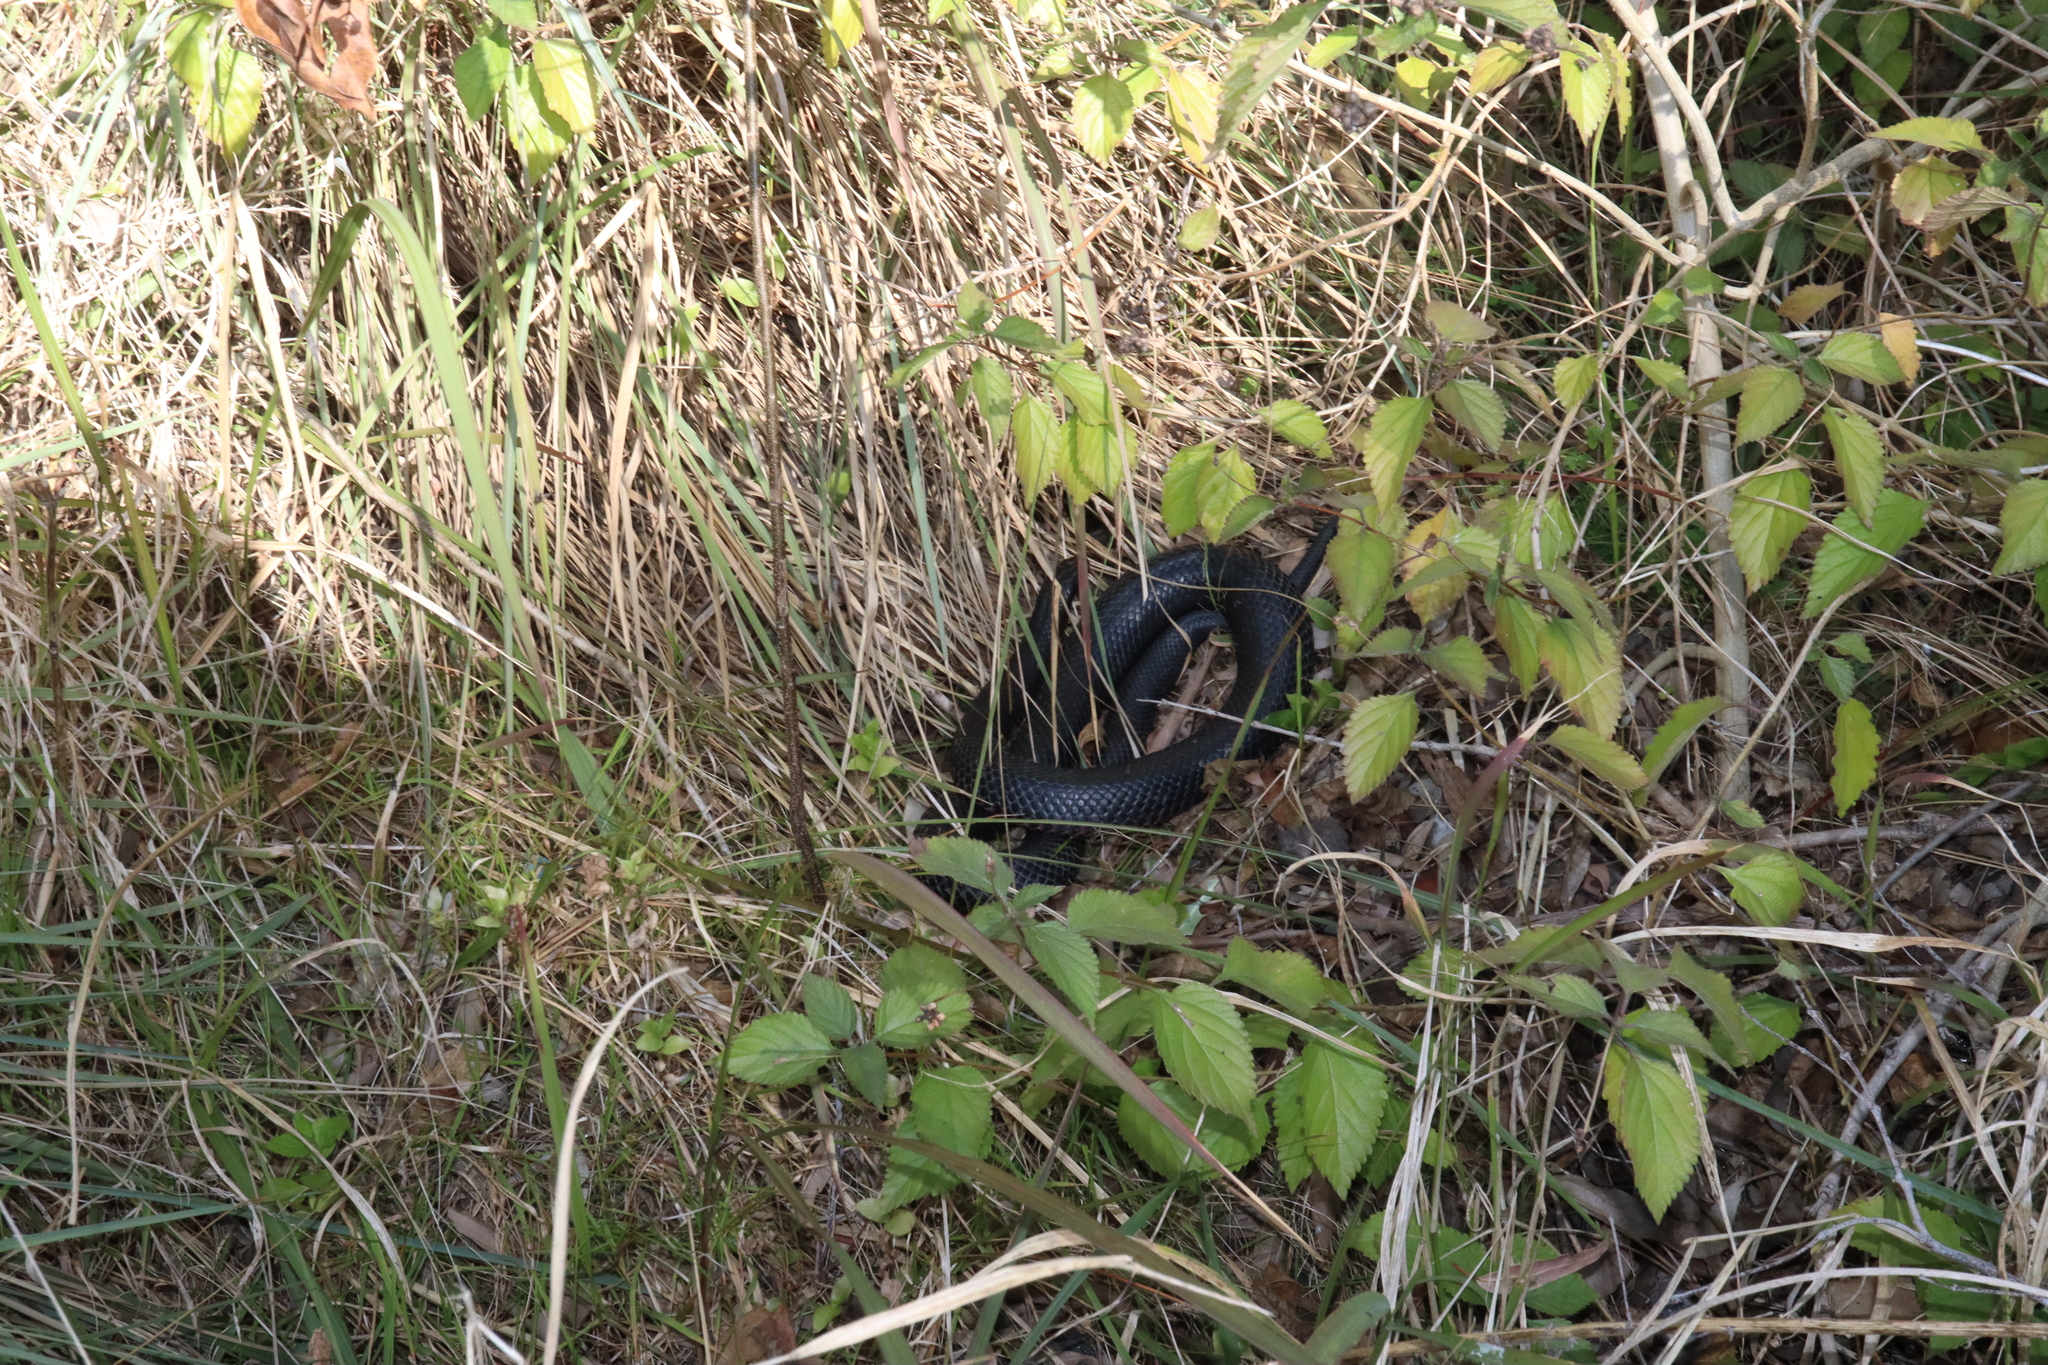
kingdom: Animalia
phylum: Chordata
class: Squamata
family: Elapidae
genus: Pseudechis
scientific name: Pseudechis porphyriacus
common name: Australian black snake
